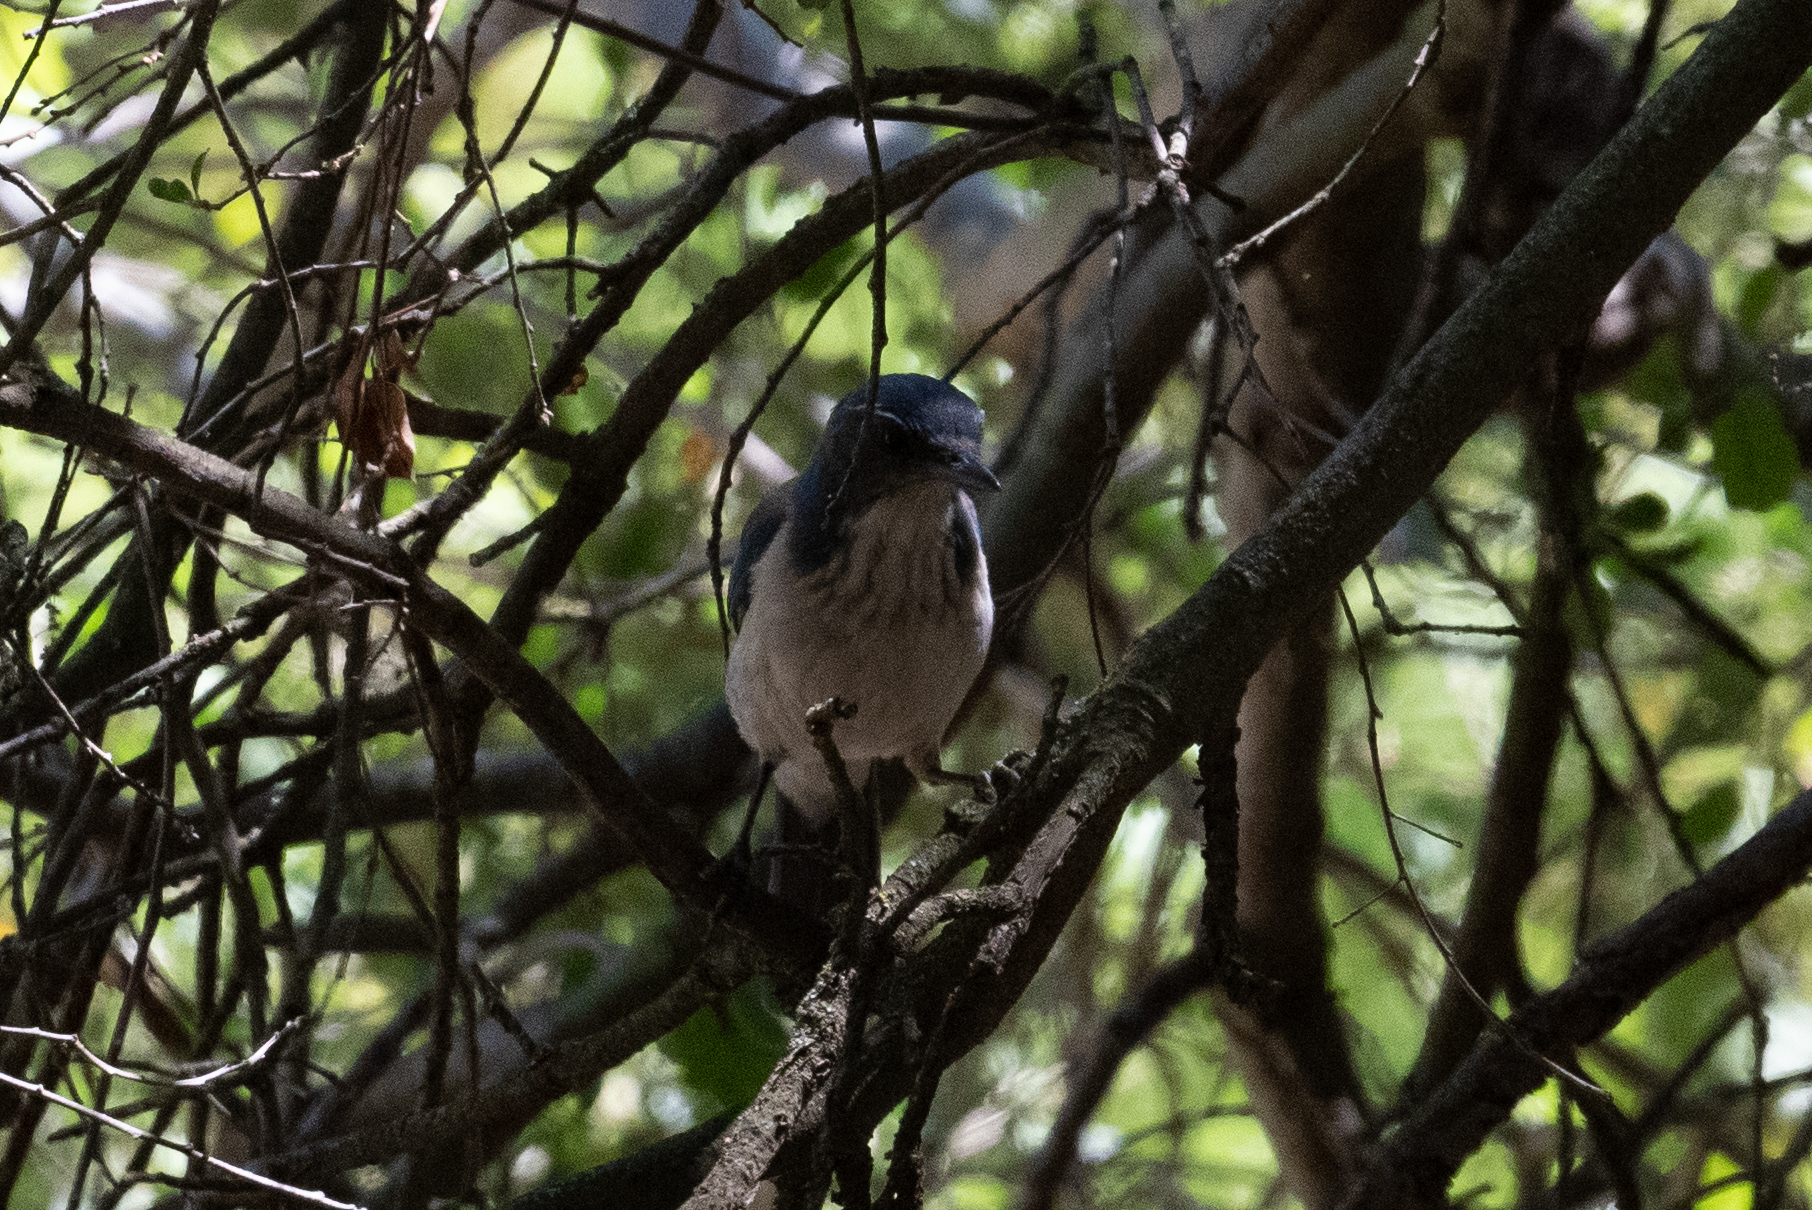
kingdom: Animalia
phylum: Chordata
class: Aves
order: Passeriformes
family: Corvidae
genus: Aphelocoma
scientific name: Aphelocoma californica
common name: California scrub-jay
